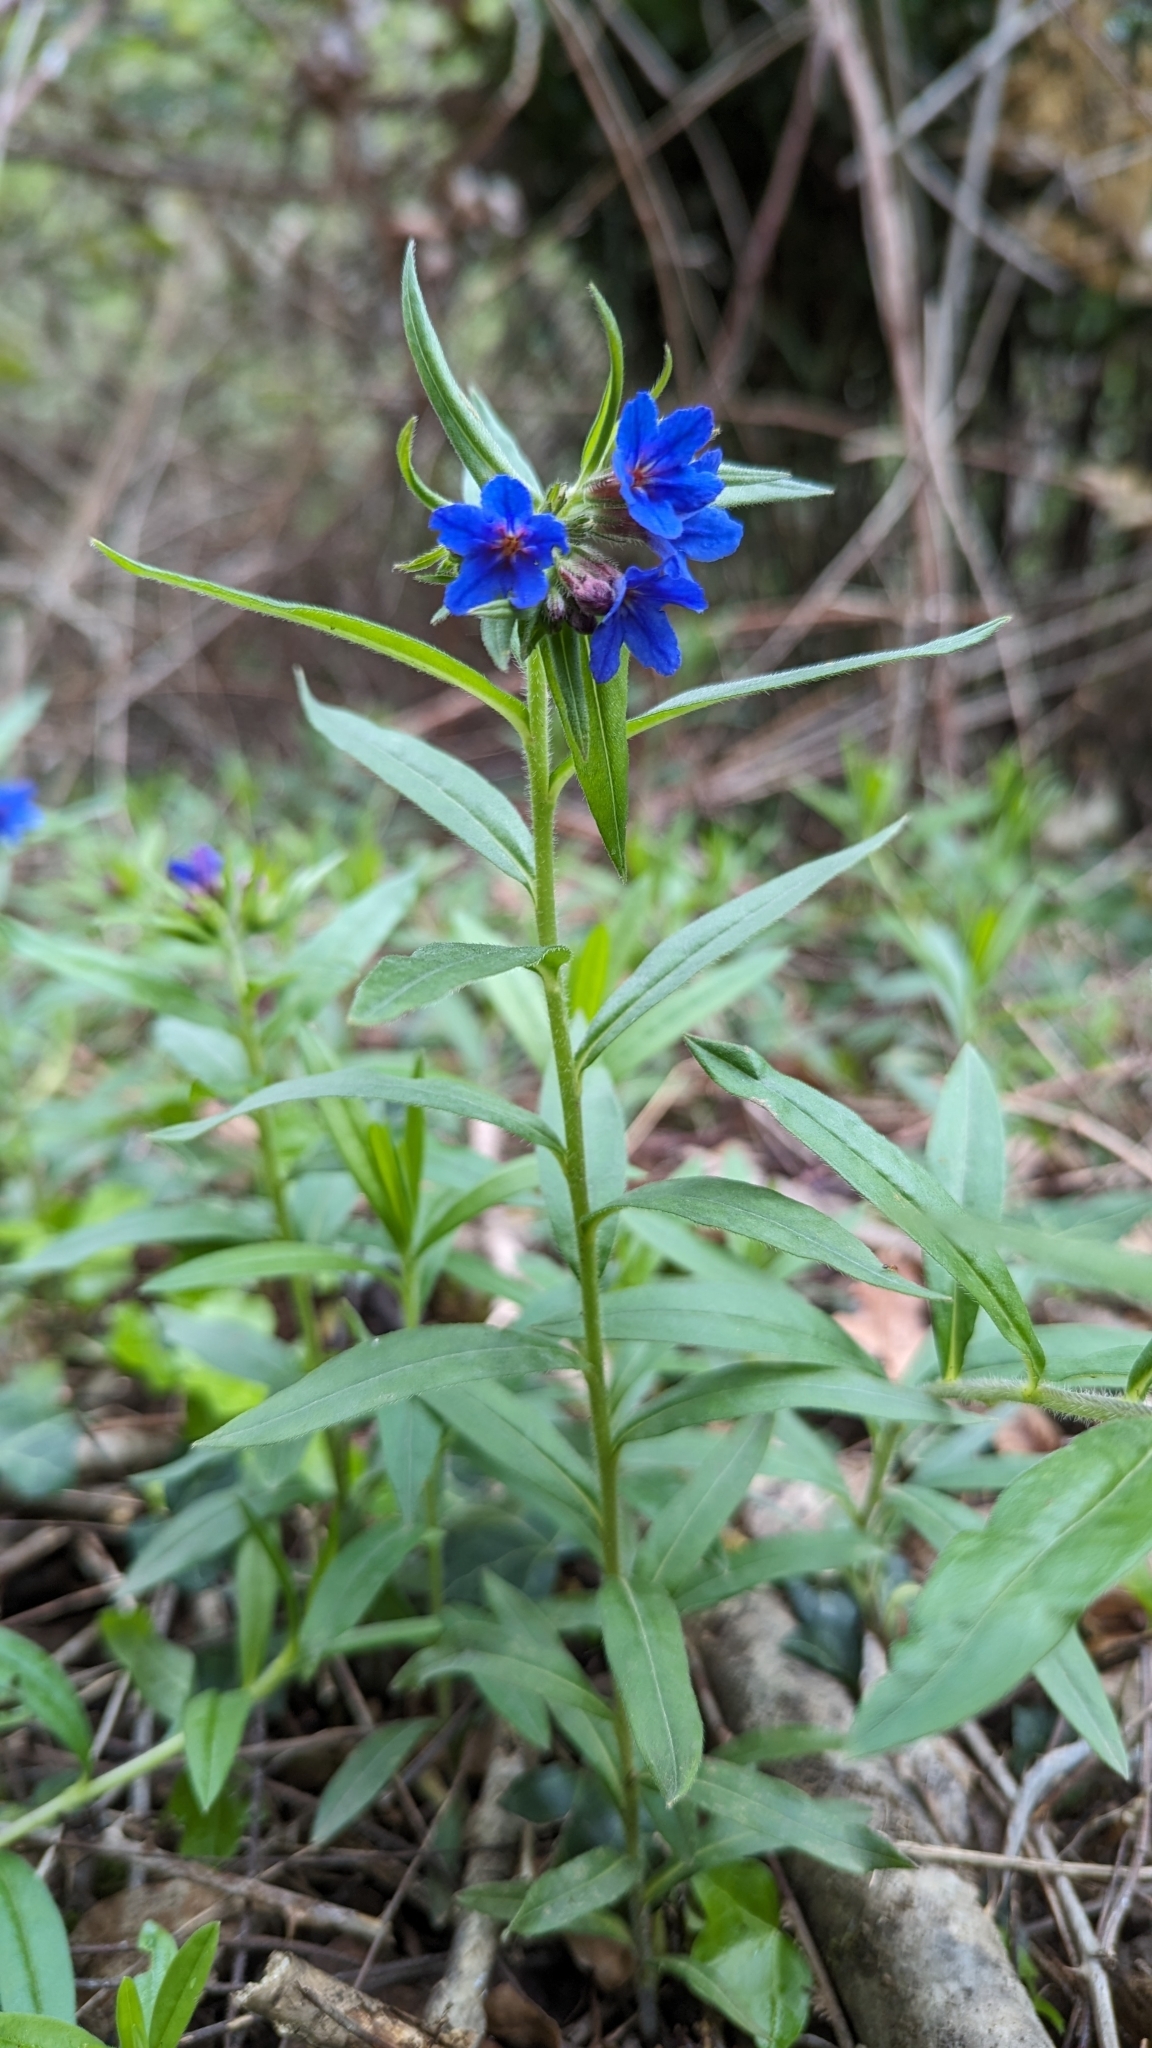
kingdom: Plantae
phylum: Tracheophyta
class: Magnoliopsida
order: Boraginales
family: Boraginaceae
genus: Aegonychon
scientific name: Aegonychon purpurocaeruleum
